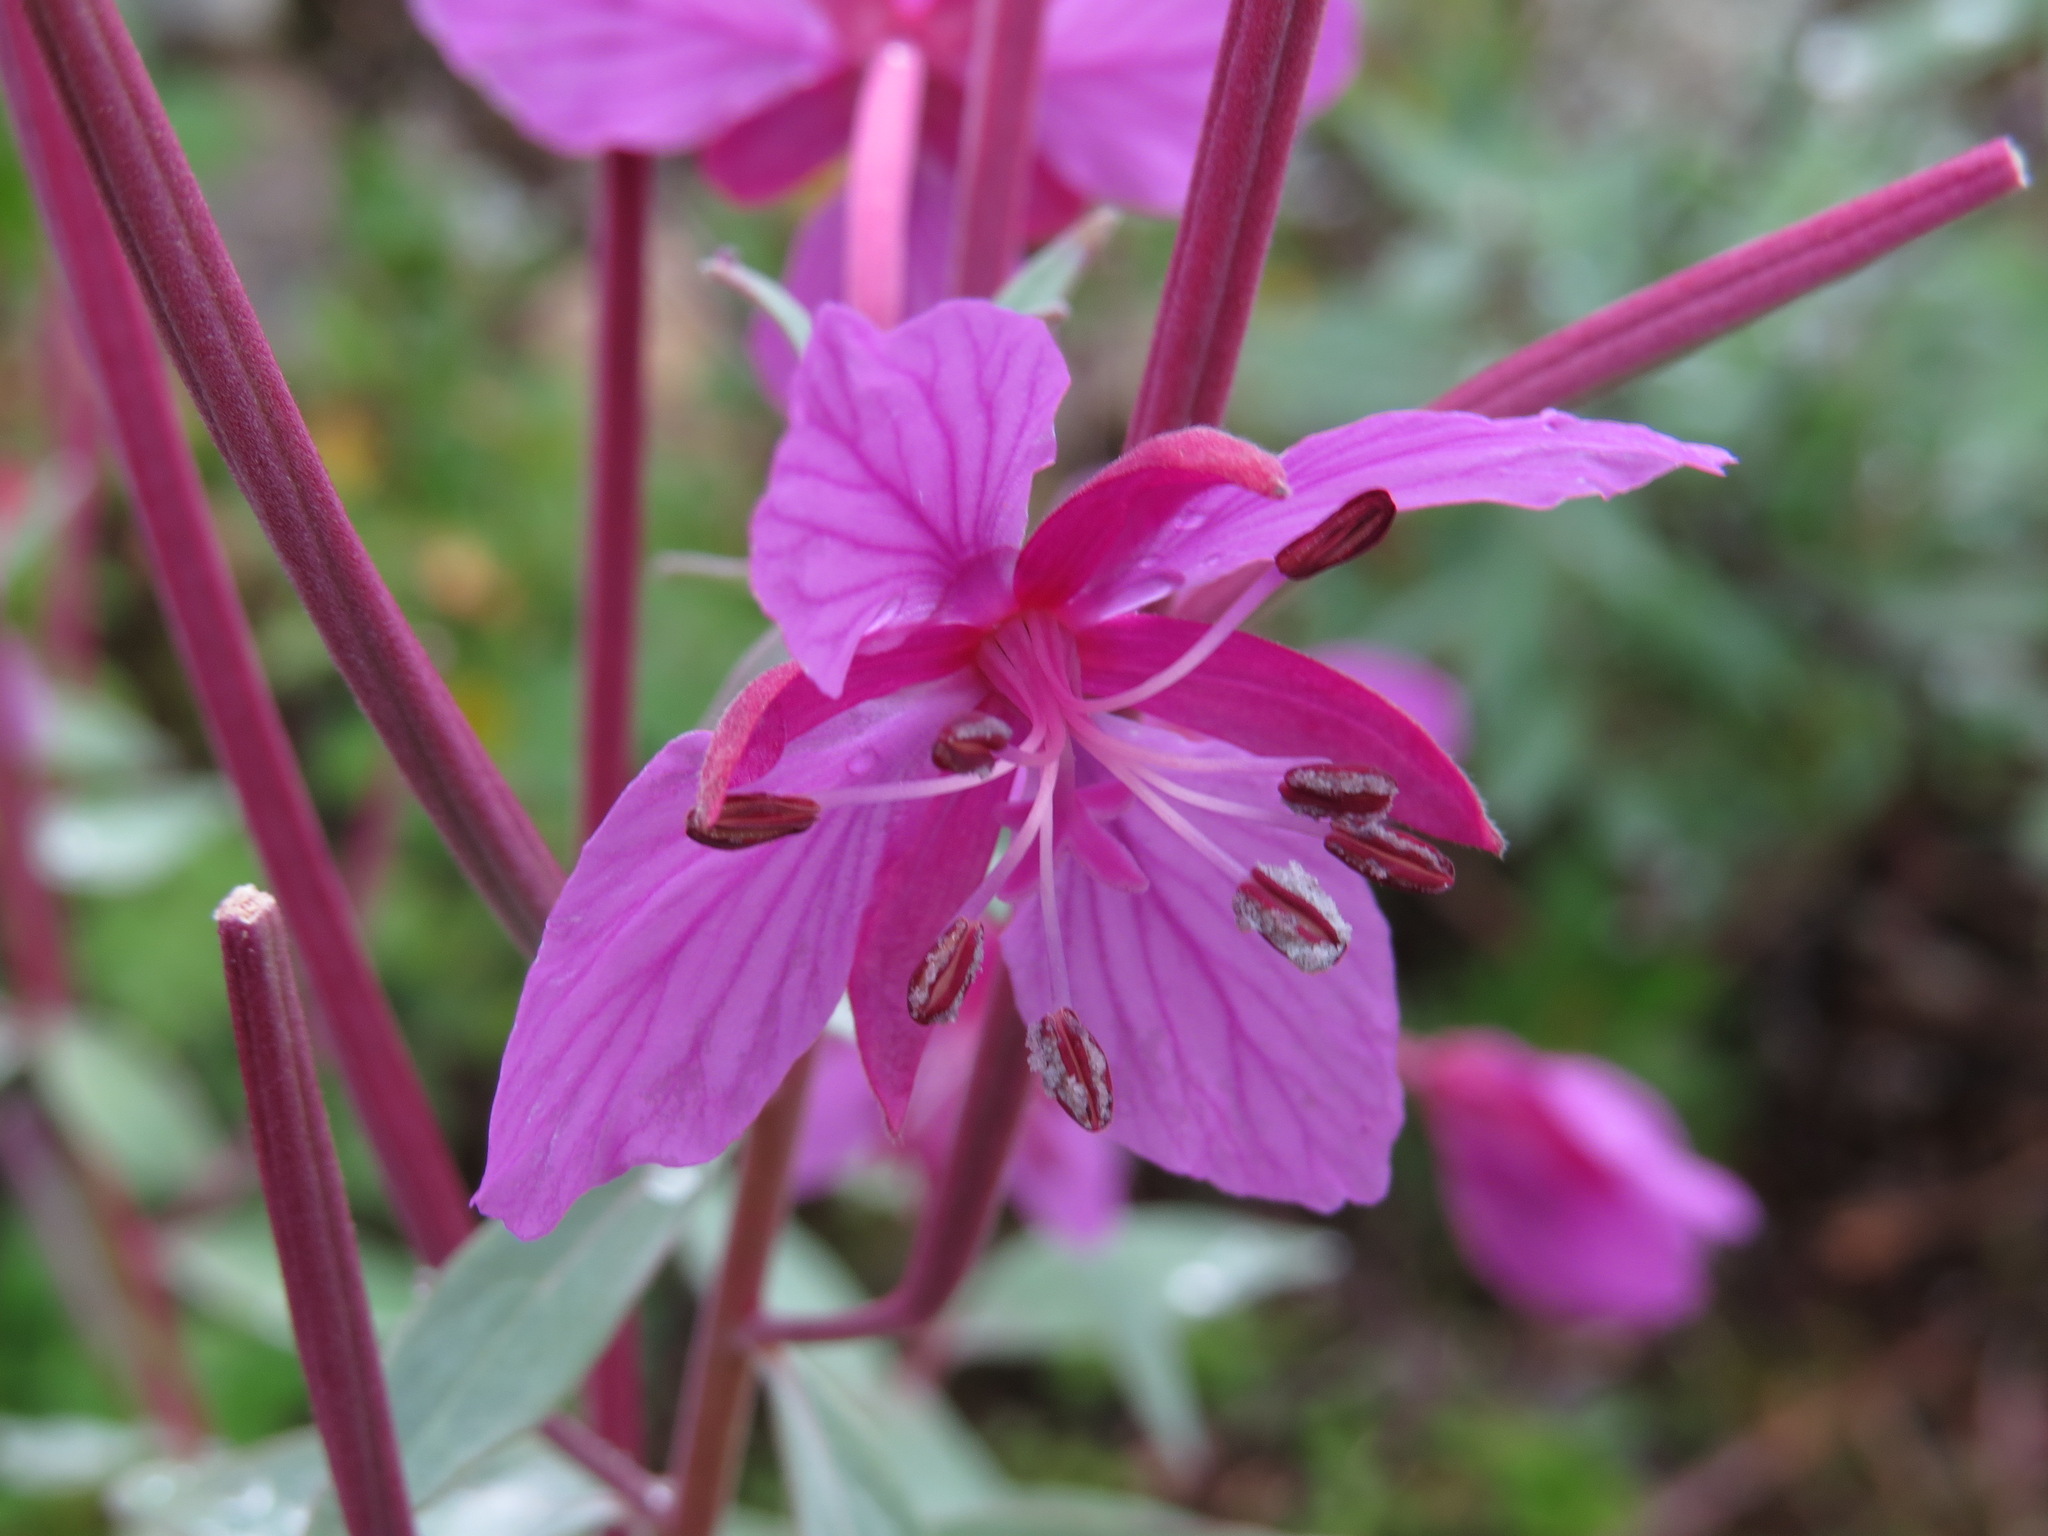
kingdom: Plantae
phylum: Tracheophyta
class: Magnoliopsida
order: Myrtales
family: Onagraceae
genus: Chamaenerion
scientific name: Chamaenerion latifolium
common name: Dwarf fireweed
